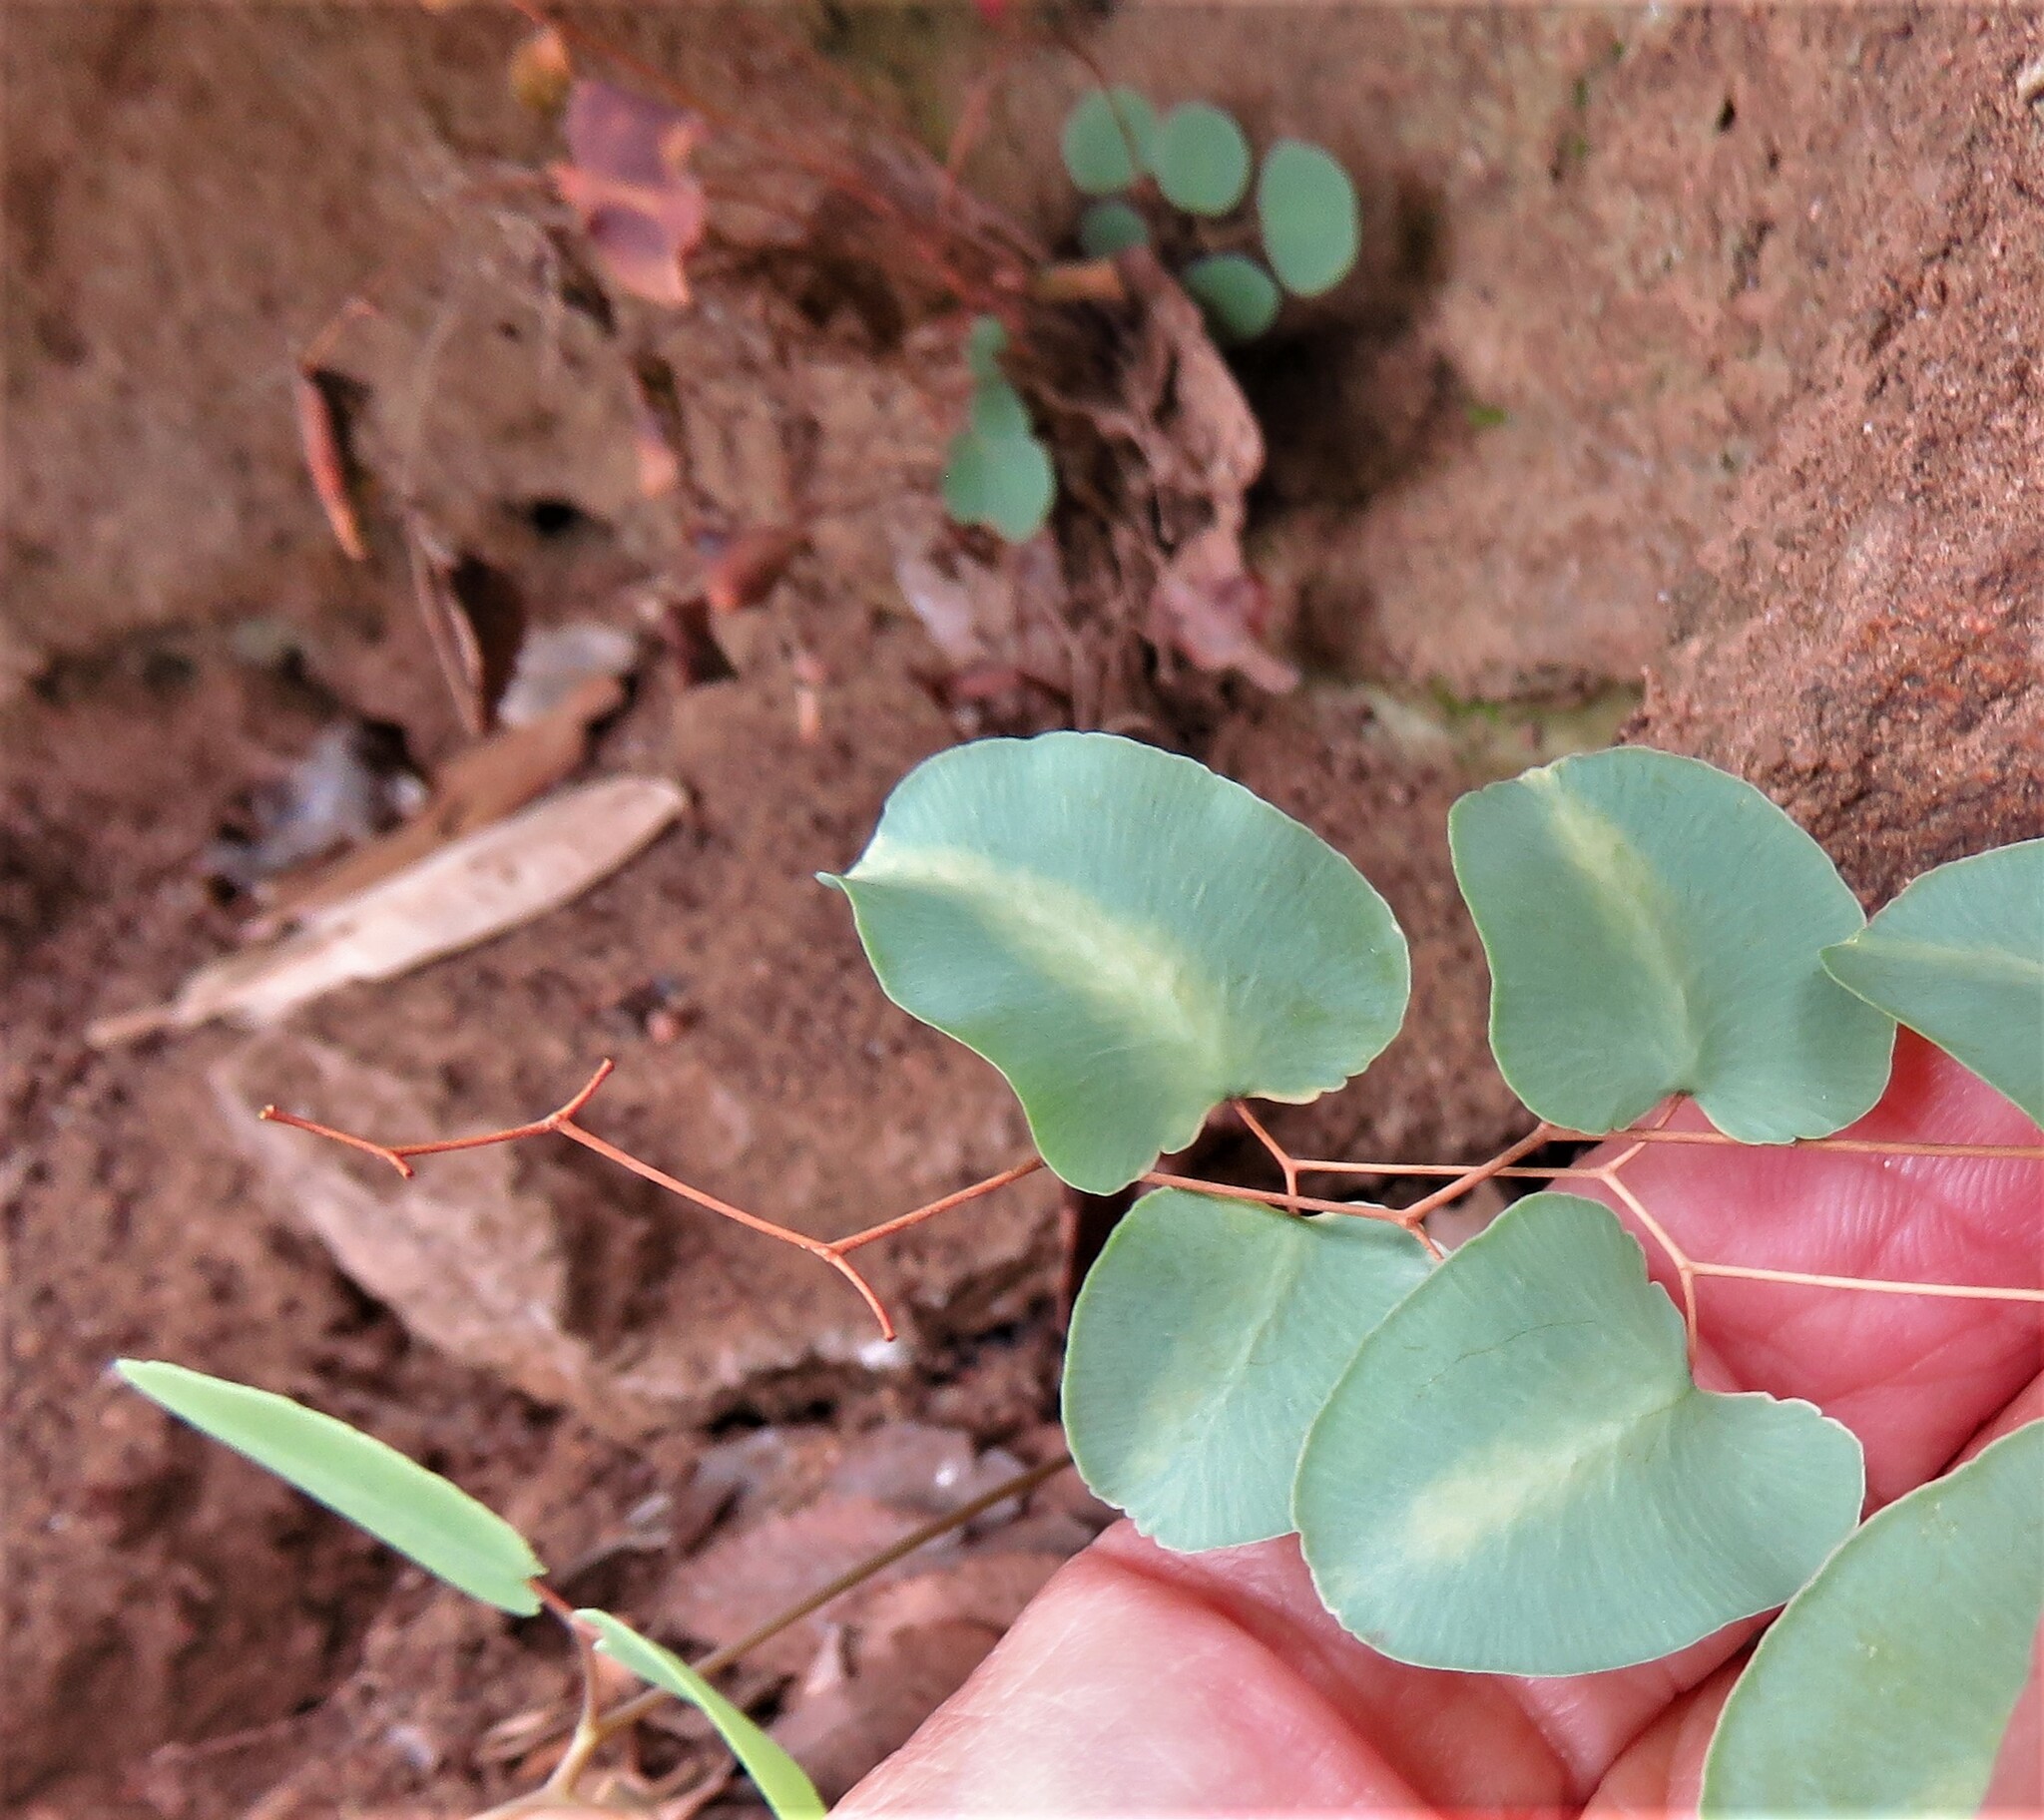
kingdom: Plantae
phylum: Tracheophyta
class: Polypodiopsida
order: Polypodiales
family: Pteridaceae
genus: Pellaea
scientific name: Pellaea ovata
